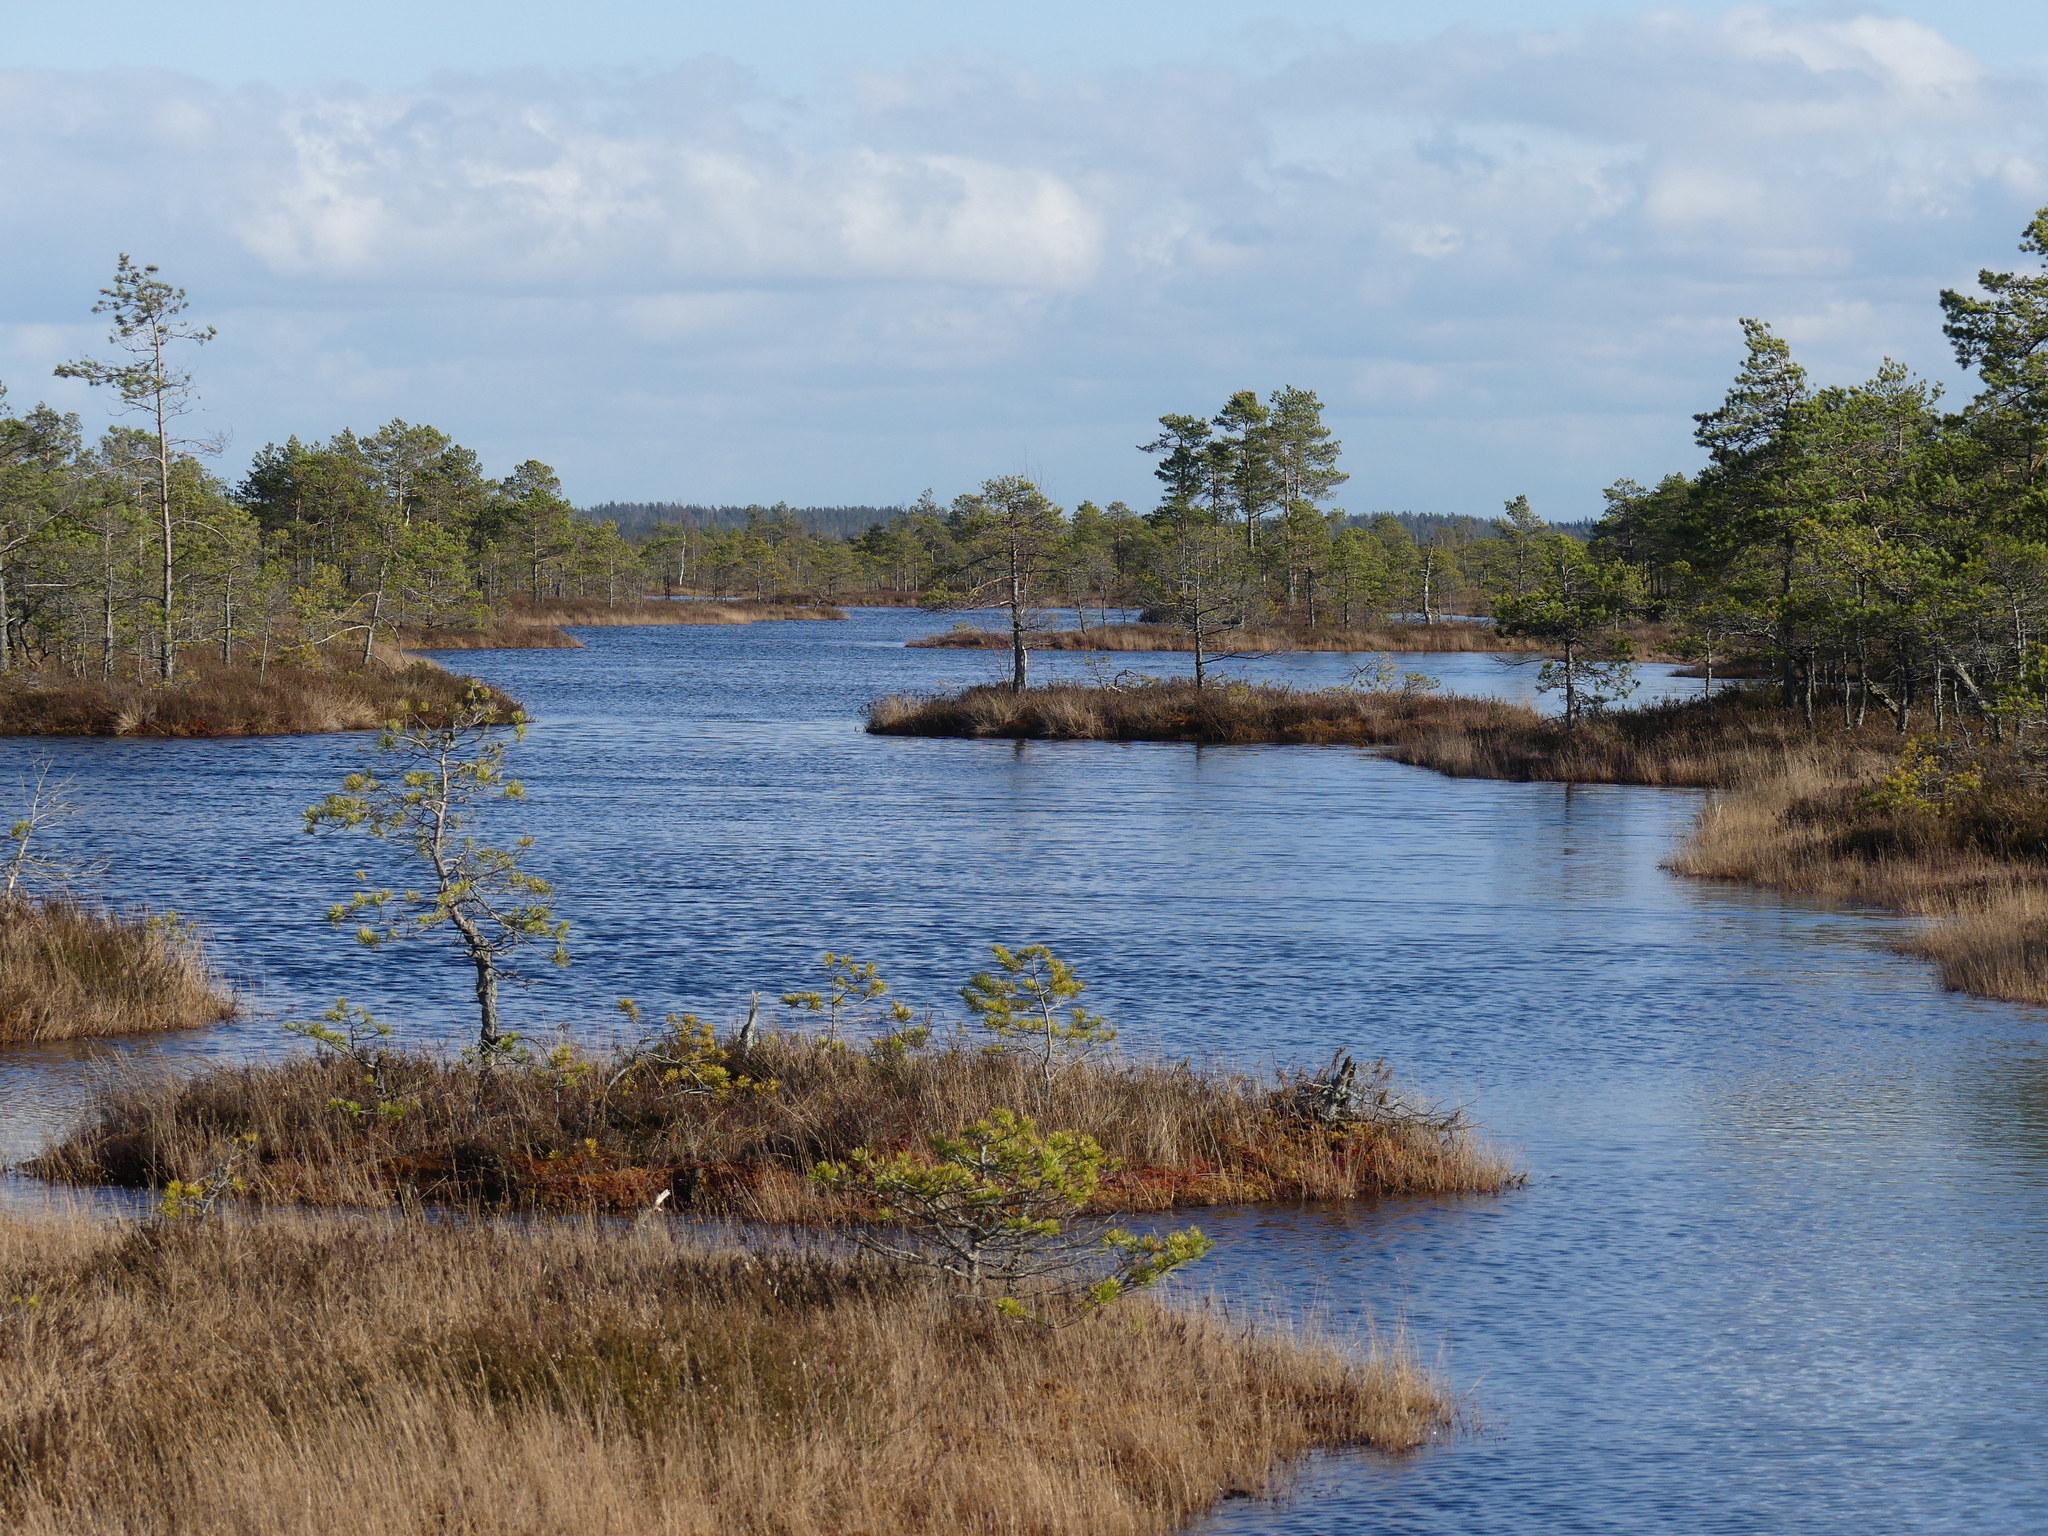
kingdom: Plantae
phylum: Tracheophyta
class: Pinopsida
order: Pinales
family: Pinaceae
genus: Pinus
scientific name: Pinus sylvestris
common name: Scots pine
